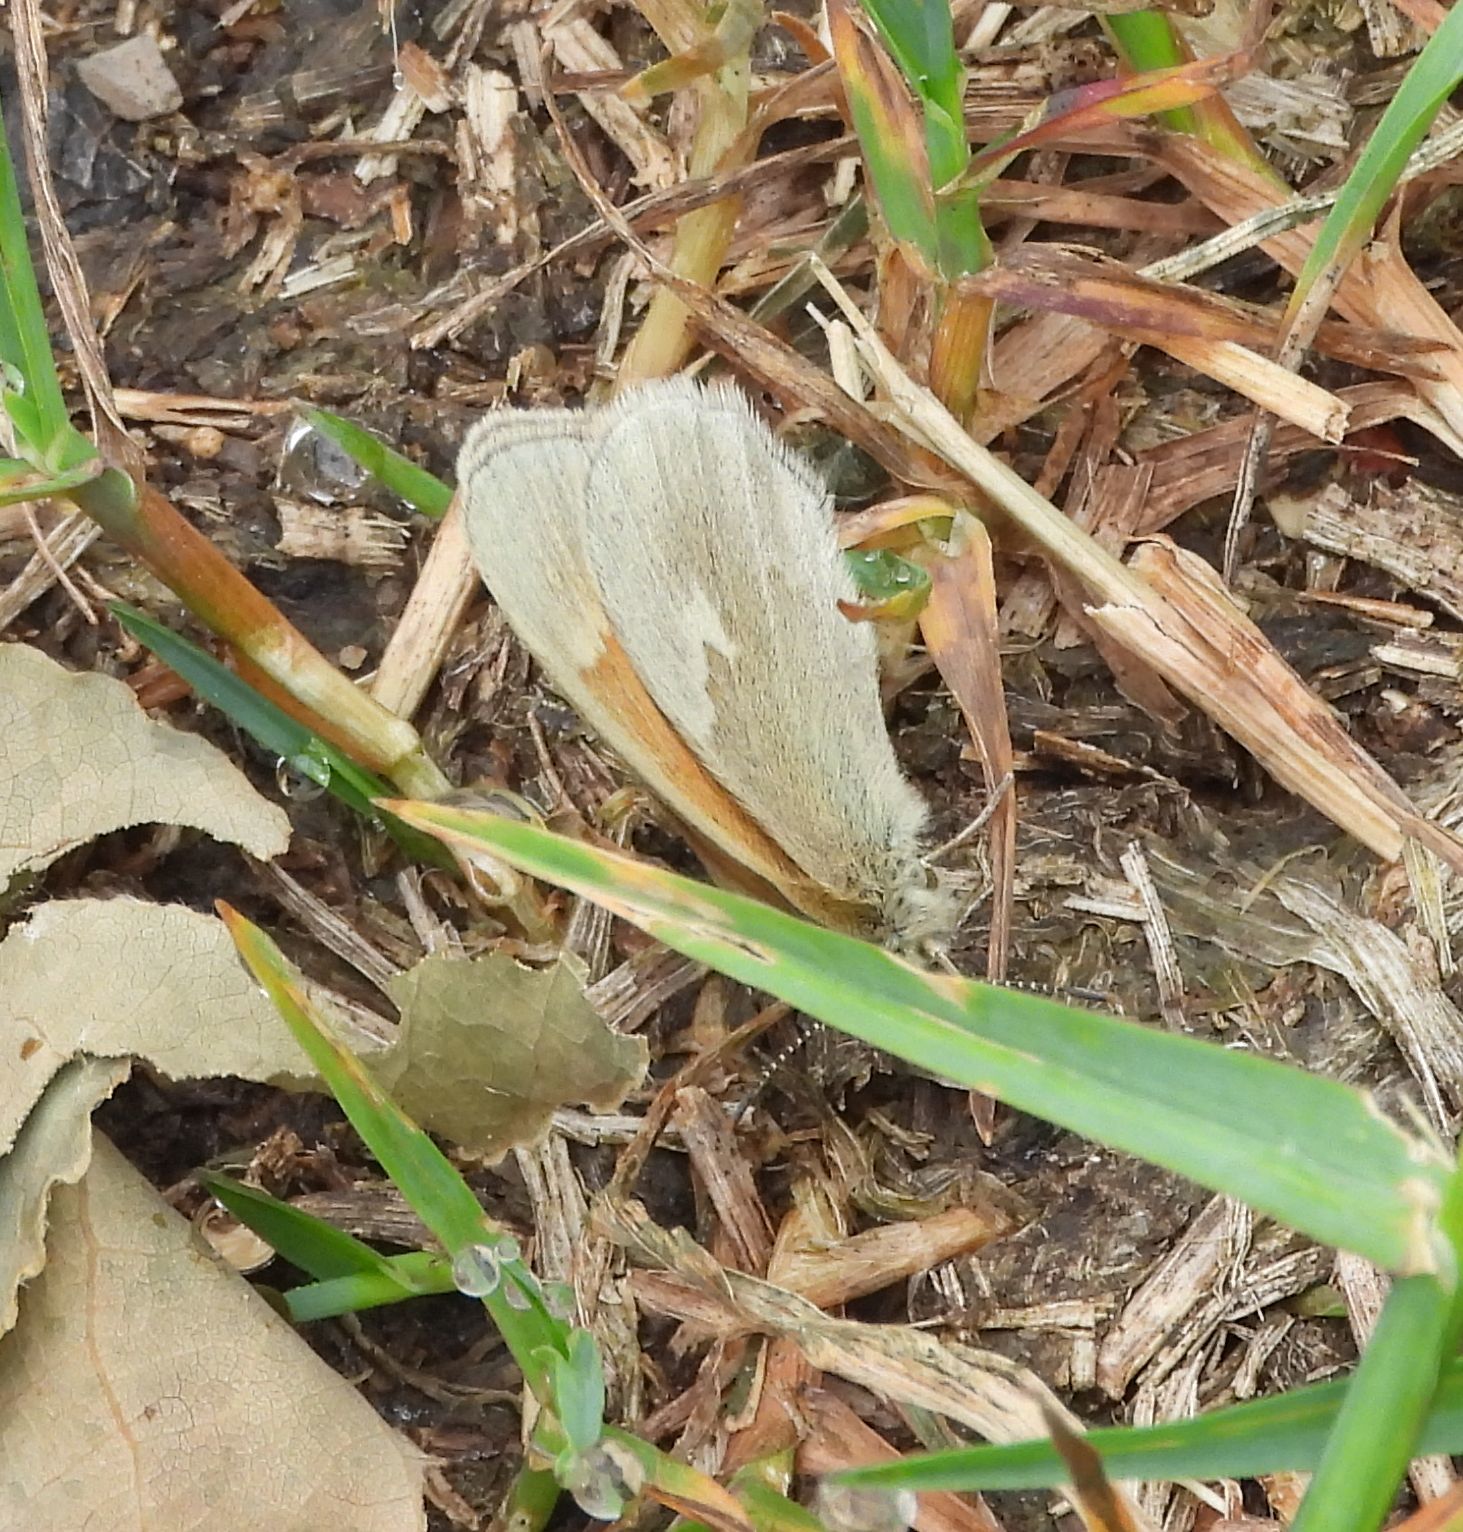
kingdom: Animalia
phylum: Arthropoda
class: Insecta
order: Lepidoptera
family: Nymphalidae
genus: Coenonympha
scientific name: Coenonympha california
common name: Common ringlet
